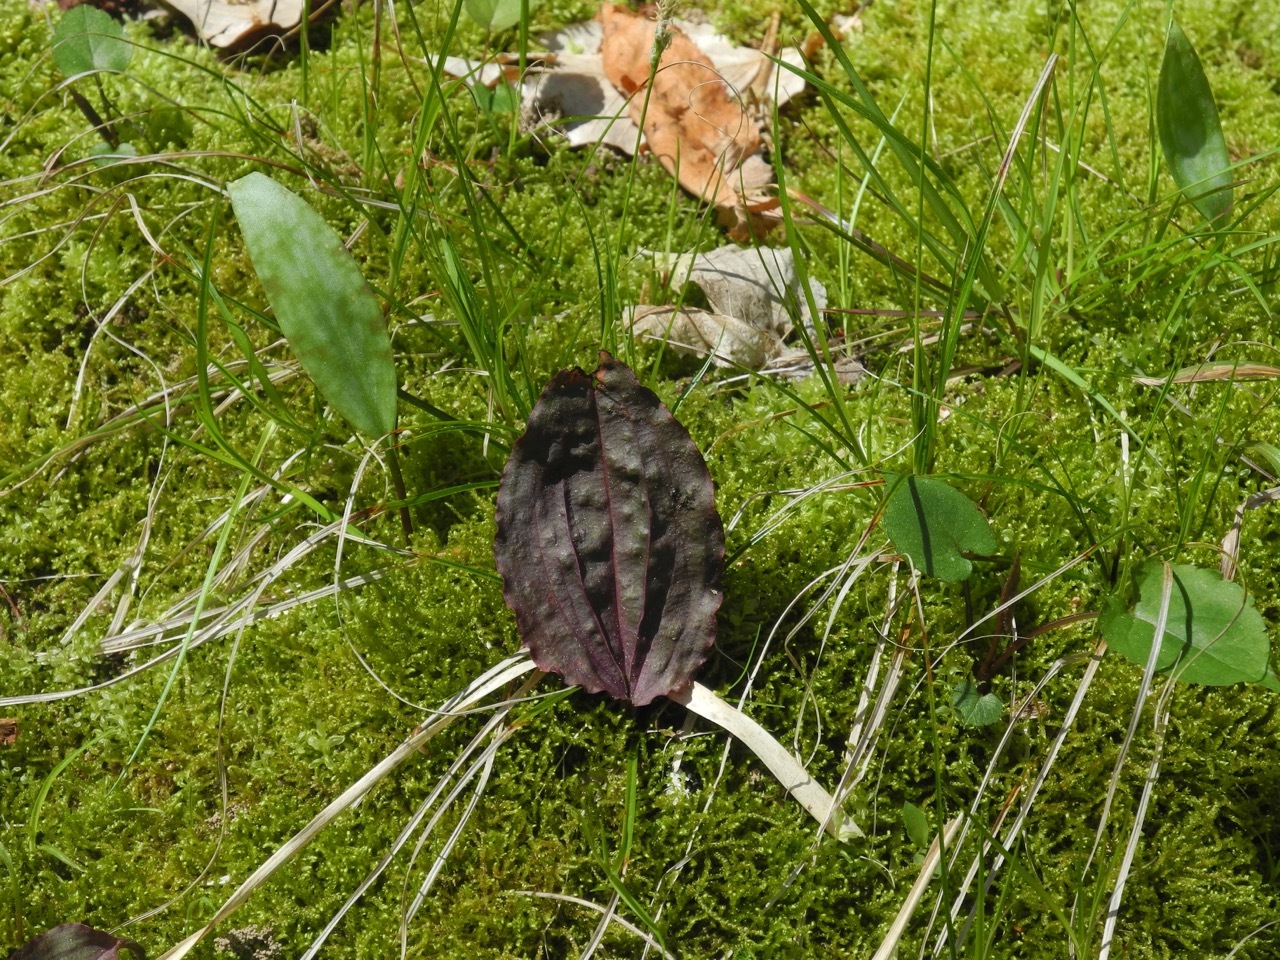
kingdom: Plantae
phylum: Tracheophyta
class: Liliopsida
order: Asparagales
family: Orchidaceae
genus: Tipularia
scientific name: Tipularia discolor
